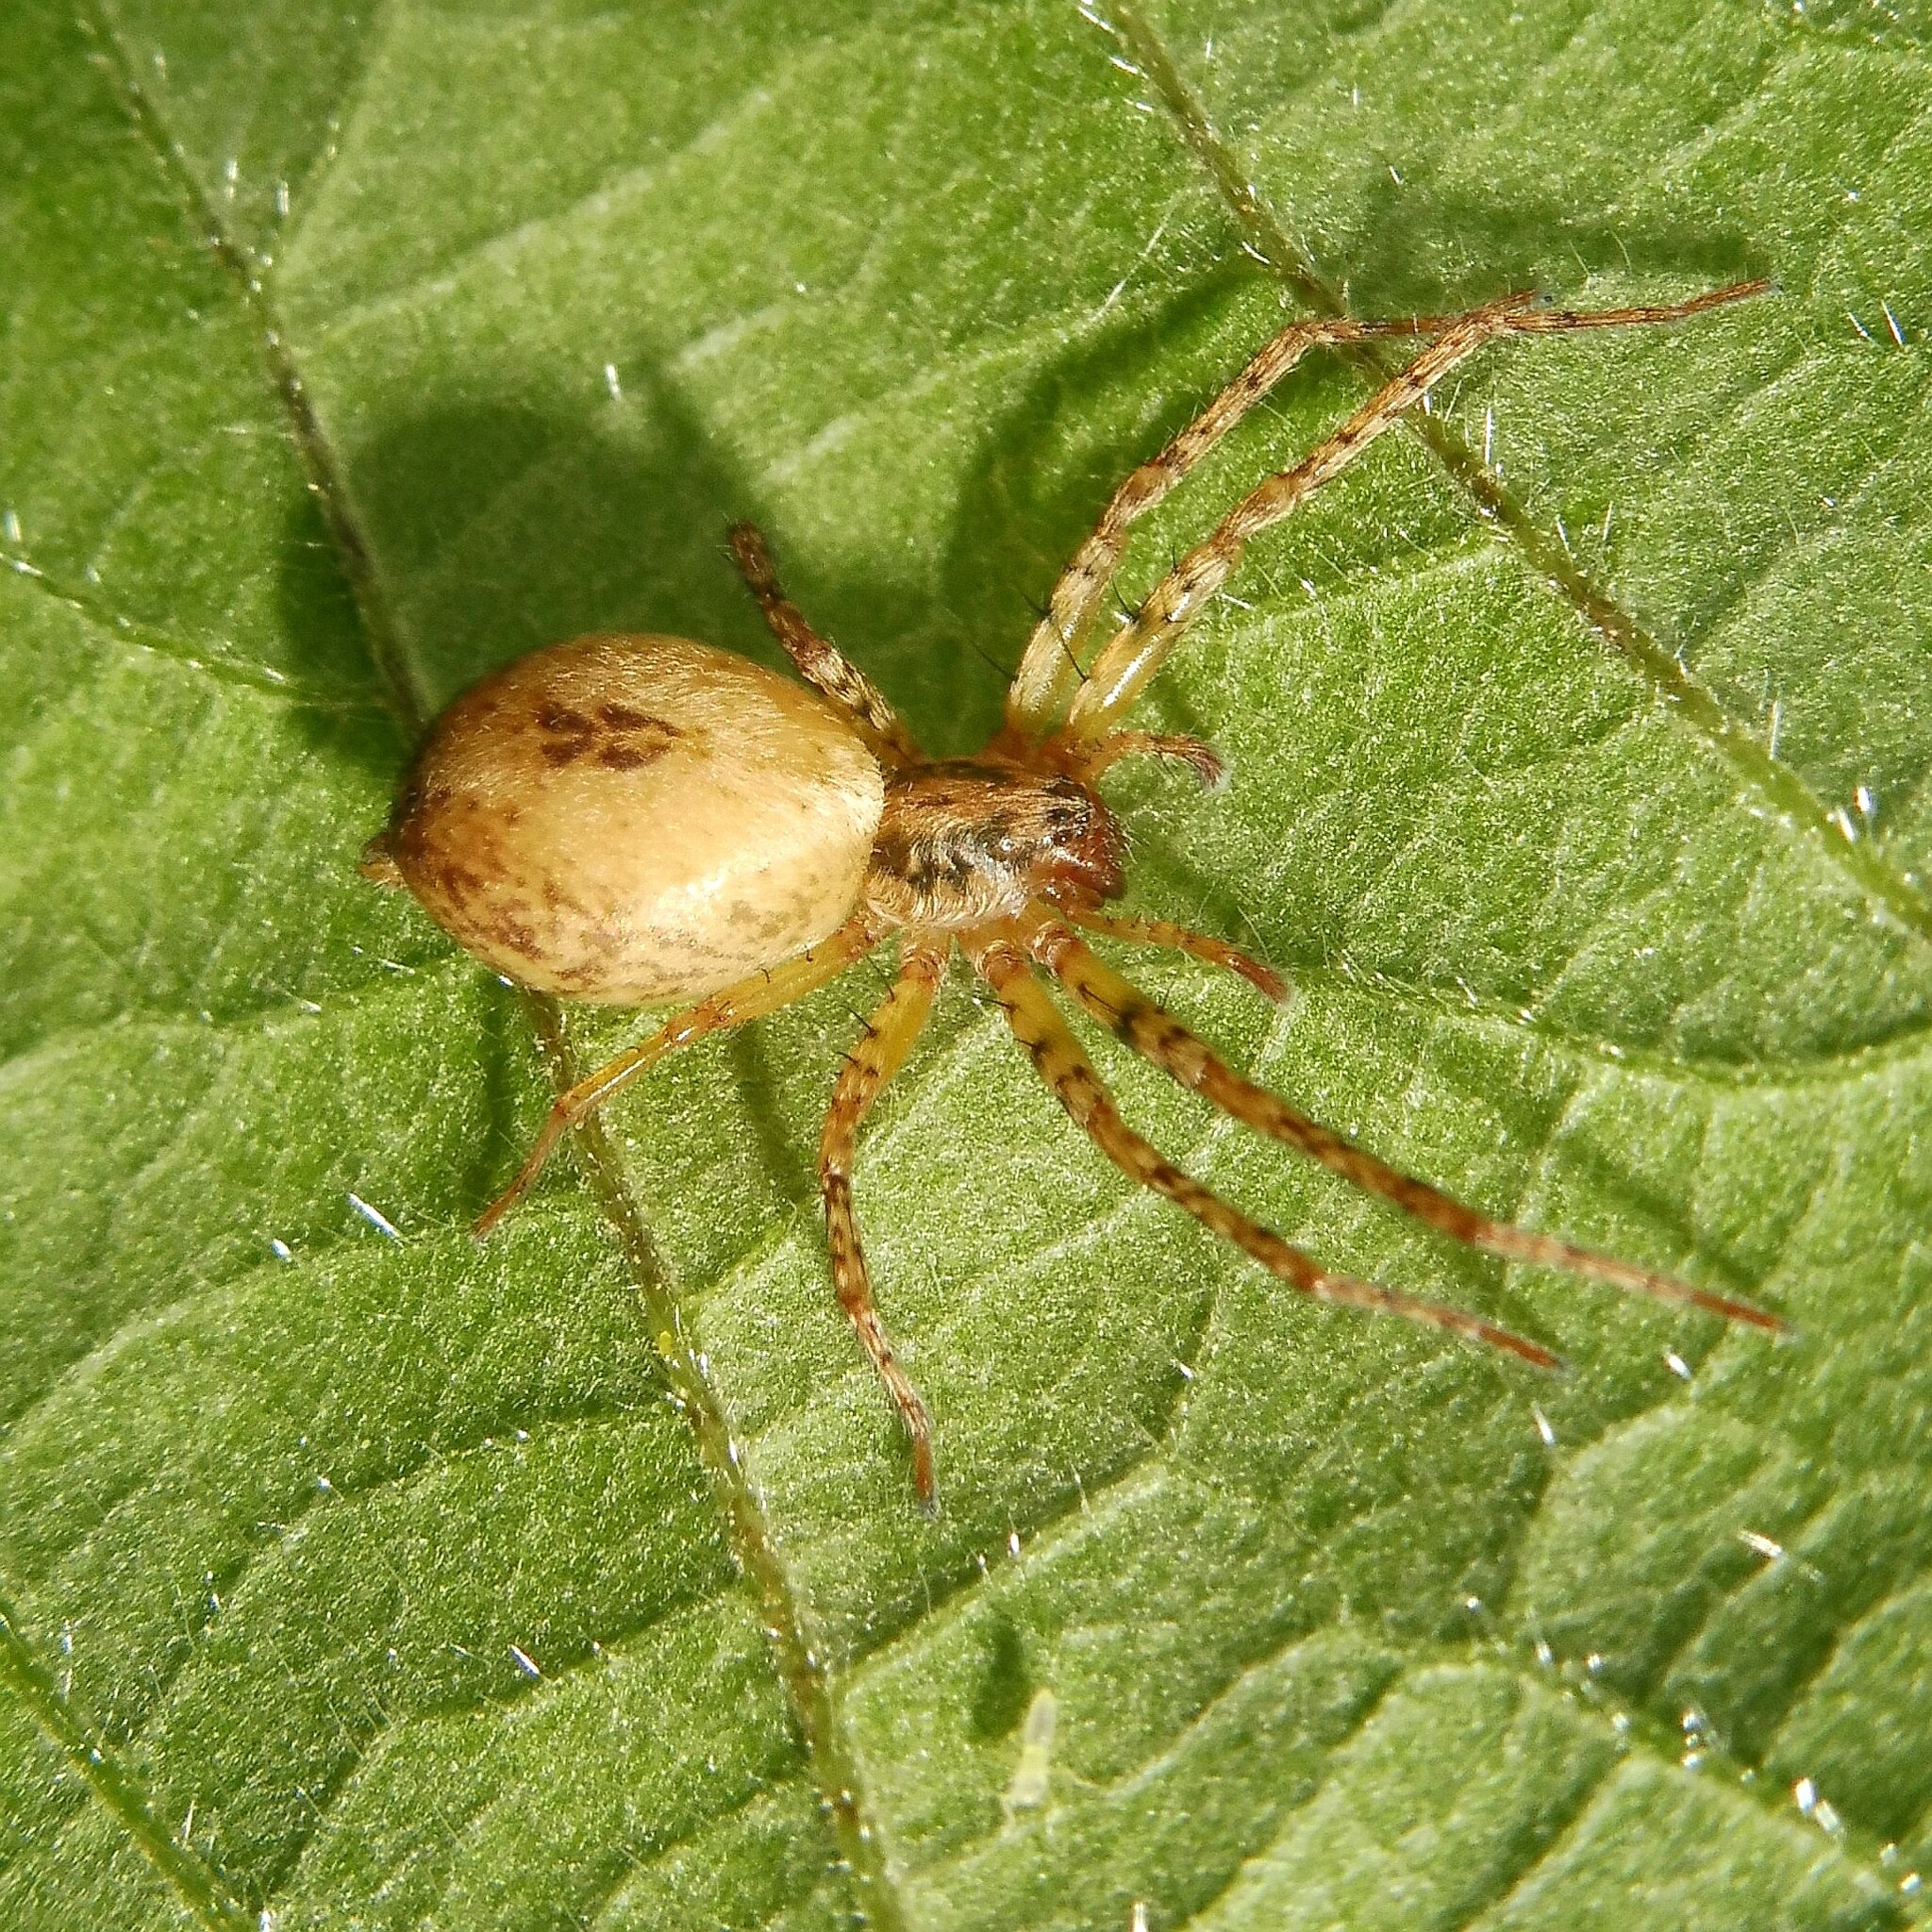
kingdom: Animalia
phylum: Arthropoda
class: Arachnida
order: Araneae
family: Anyphaenidae
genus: Anyphaena
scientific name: Anyphaena accentuata
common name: Buzzing spider
